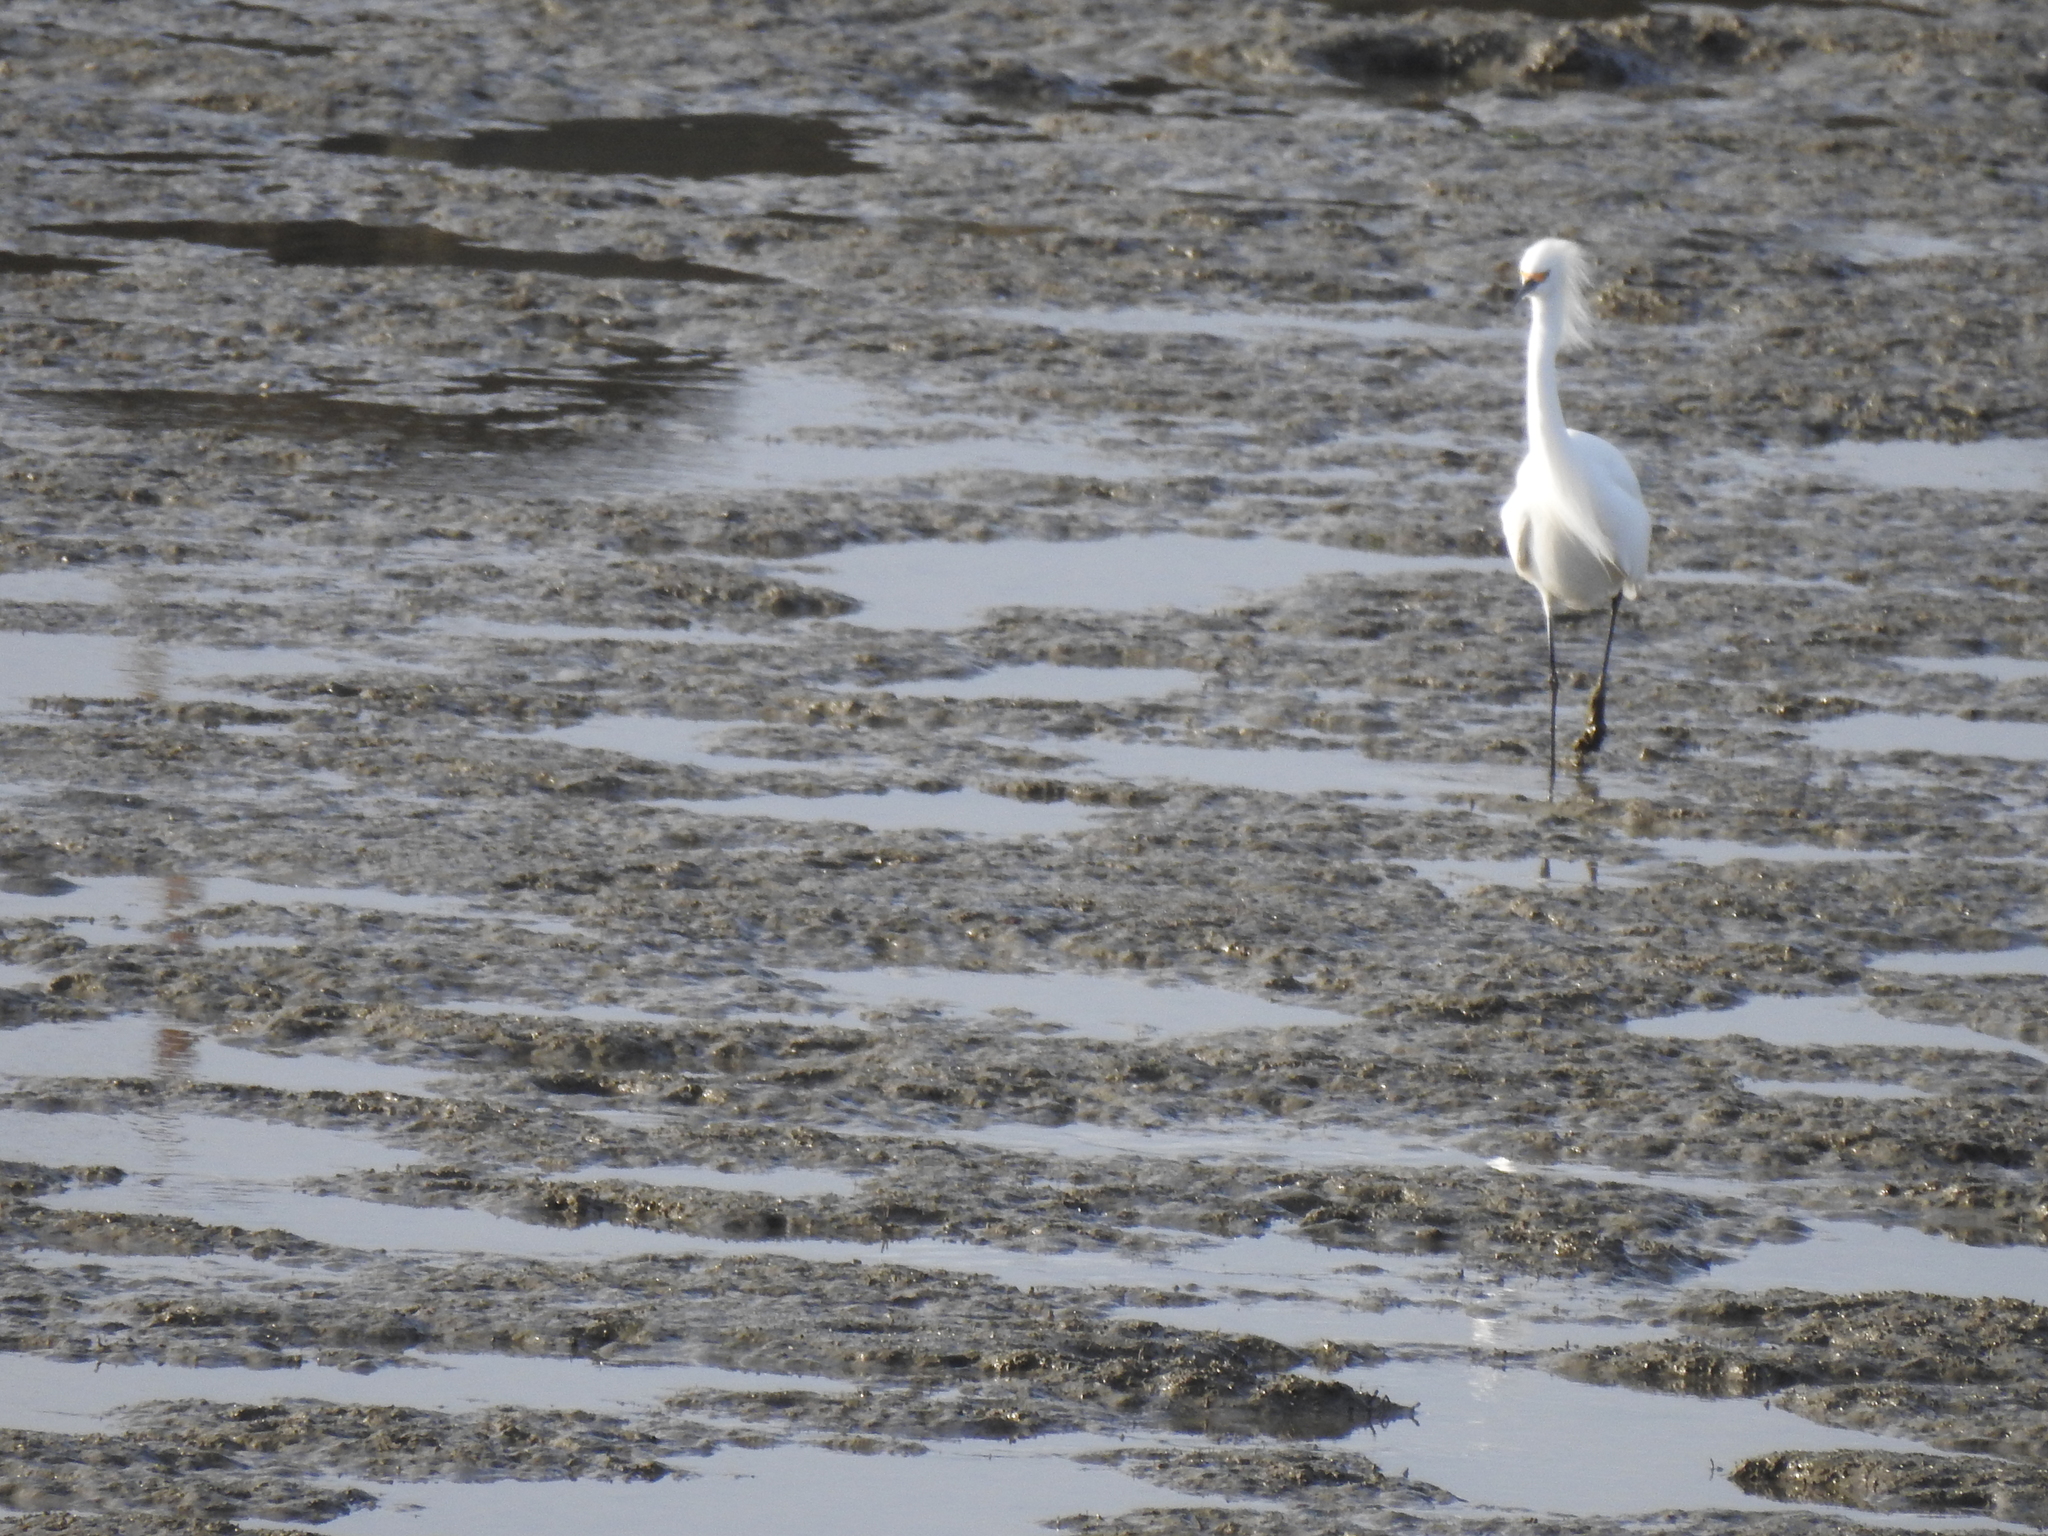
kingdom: Animalia
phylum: Chordata
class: Aves
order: Pelecaniformes
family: Ardeidae
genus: Egretta
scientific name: Egretta thula
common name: Snowy egret
